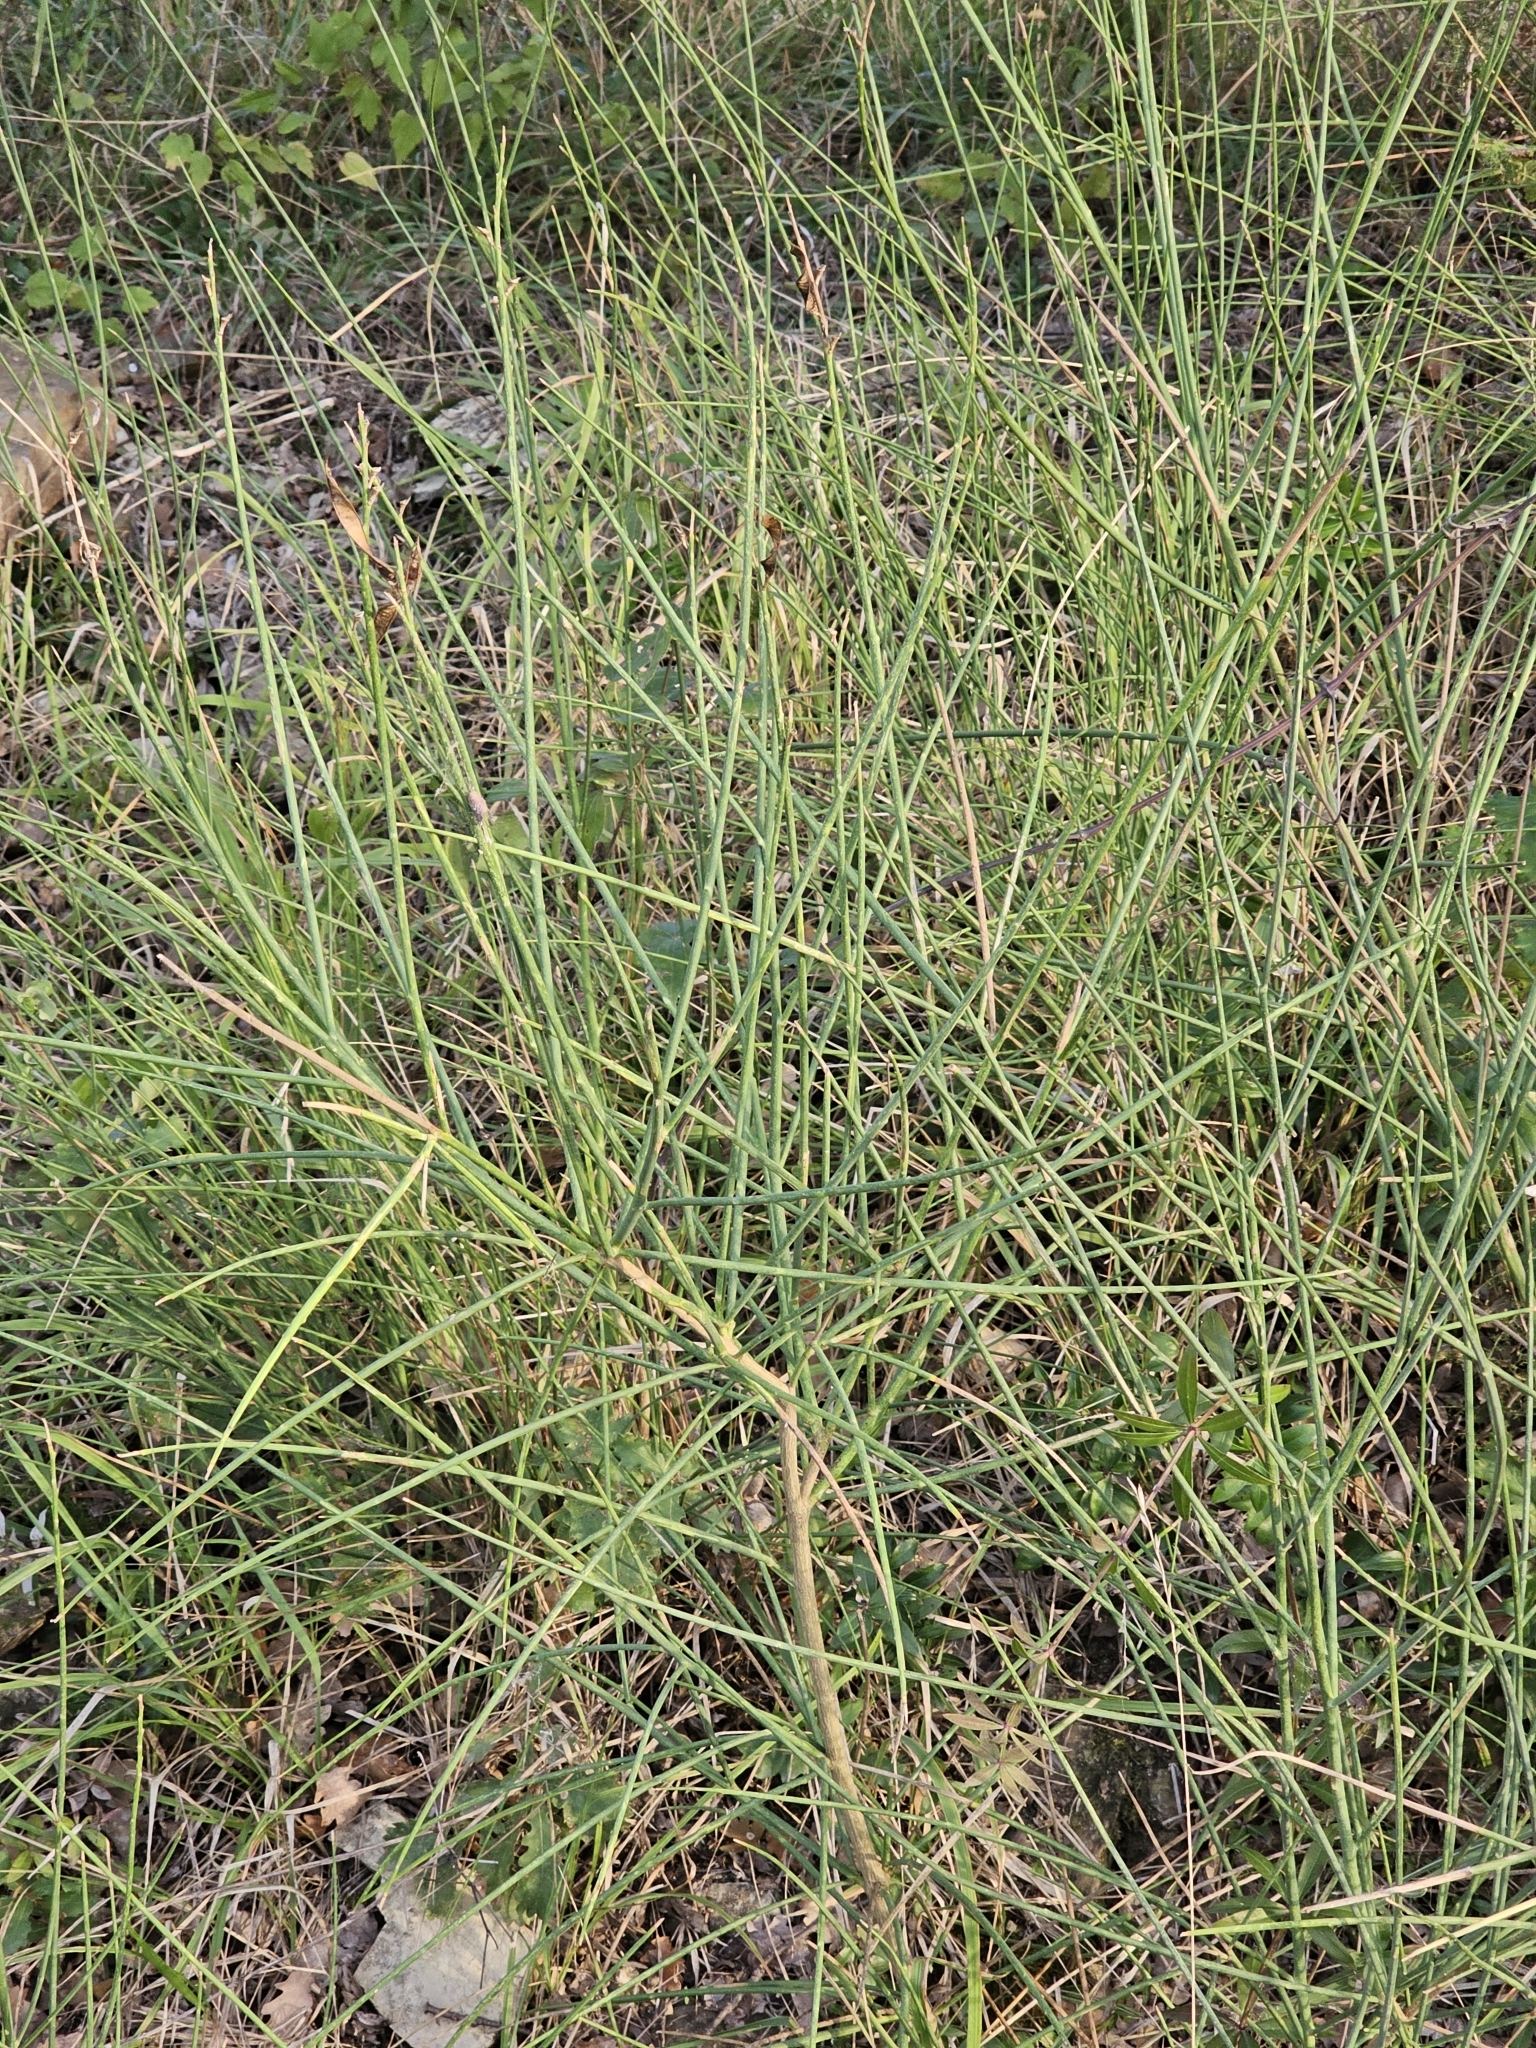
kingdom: Plantae
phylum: Tracheophyta
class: Magnoliopsida
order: Fabales
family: Fabaceae
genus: Spartium
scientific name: Spartium junceum
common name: Spanish broom
